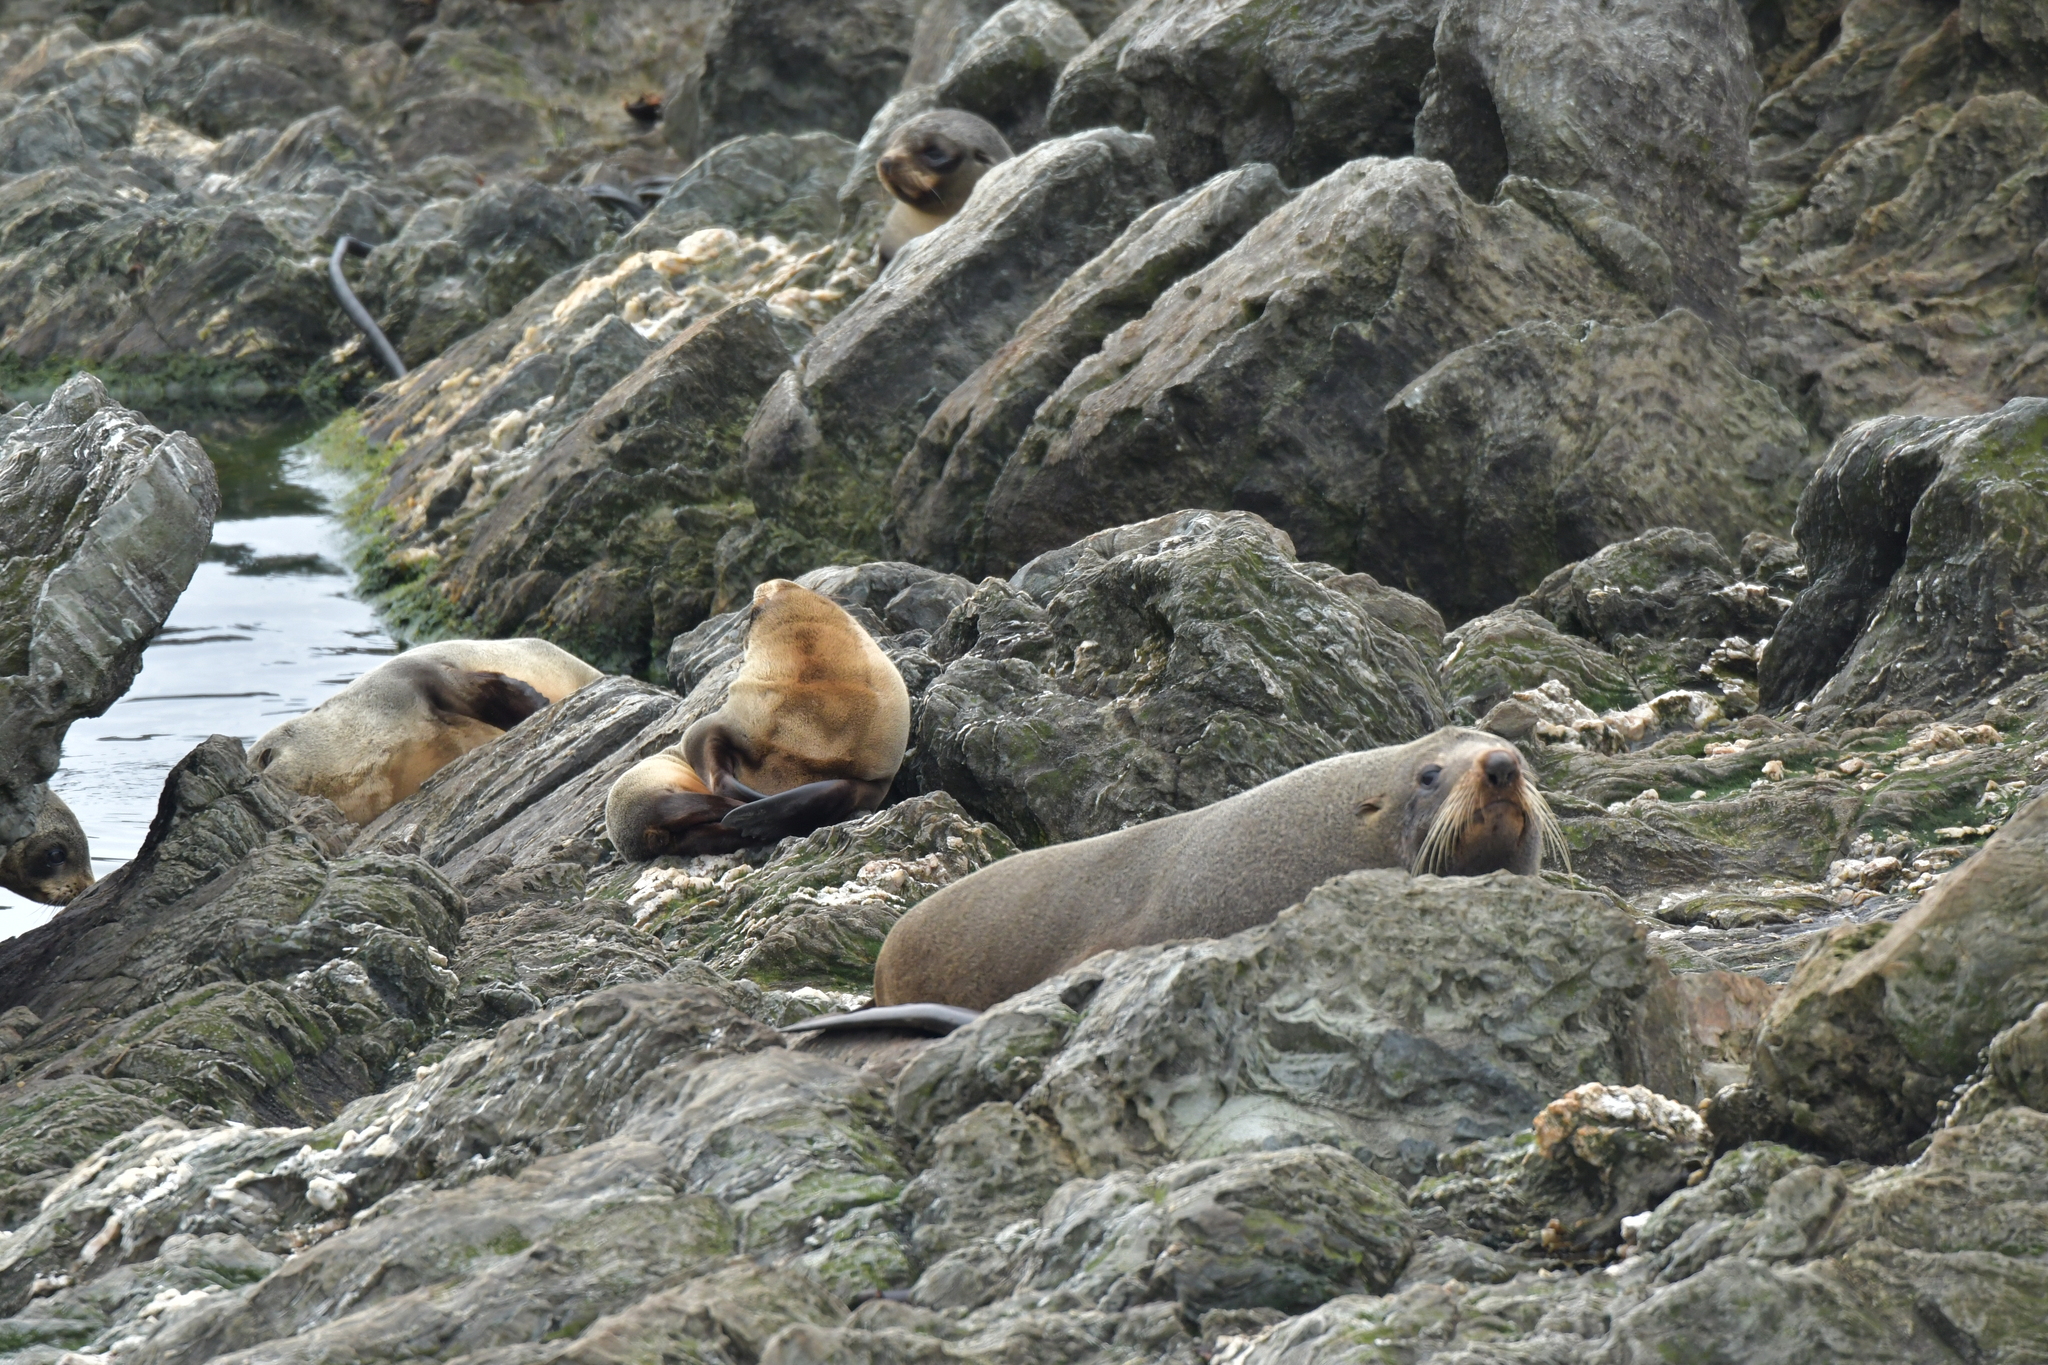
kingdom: Animalia
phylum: Chordata
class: Mammalia
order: Carnivora
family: Otariidae
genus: Arctocephalus
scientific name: Arctocephalus forsteri
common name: New zealand fur seal
